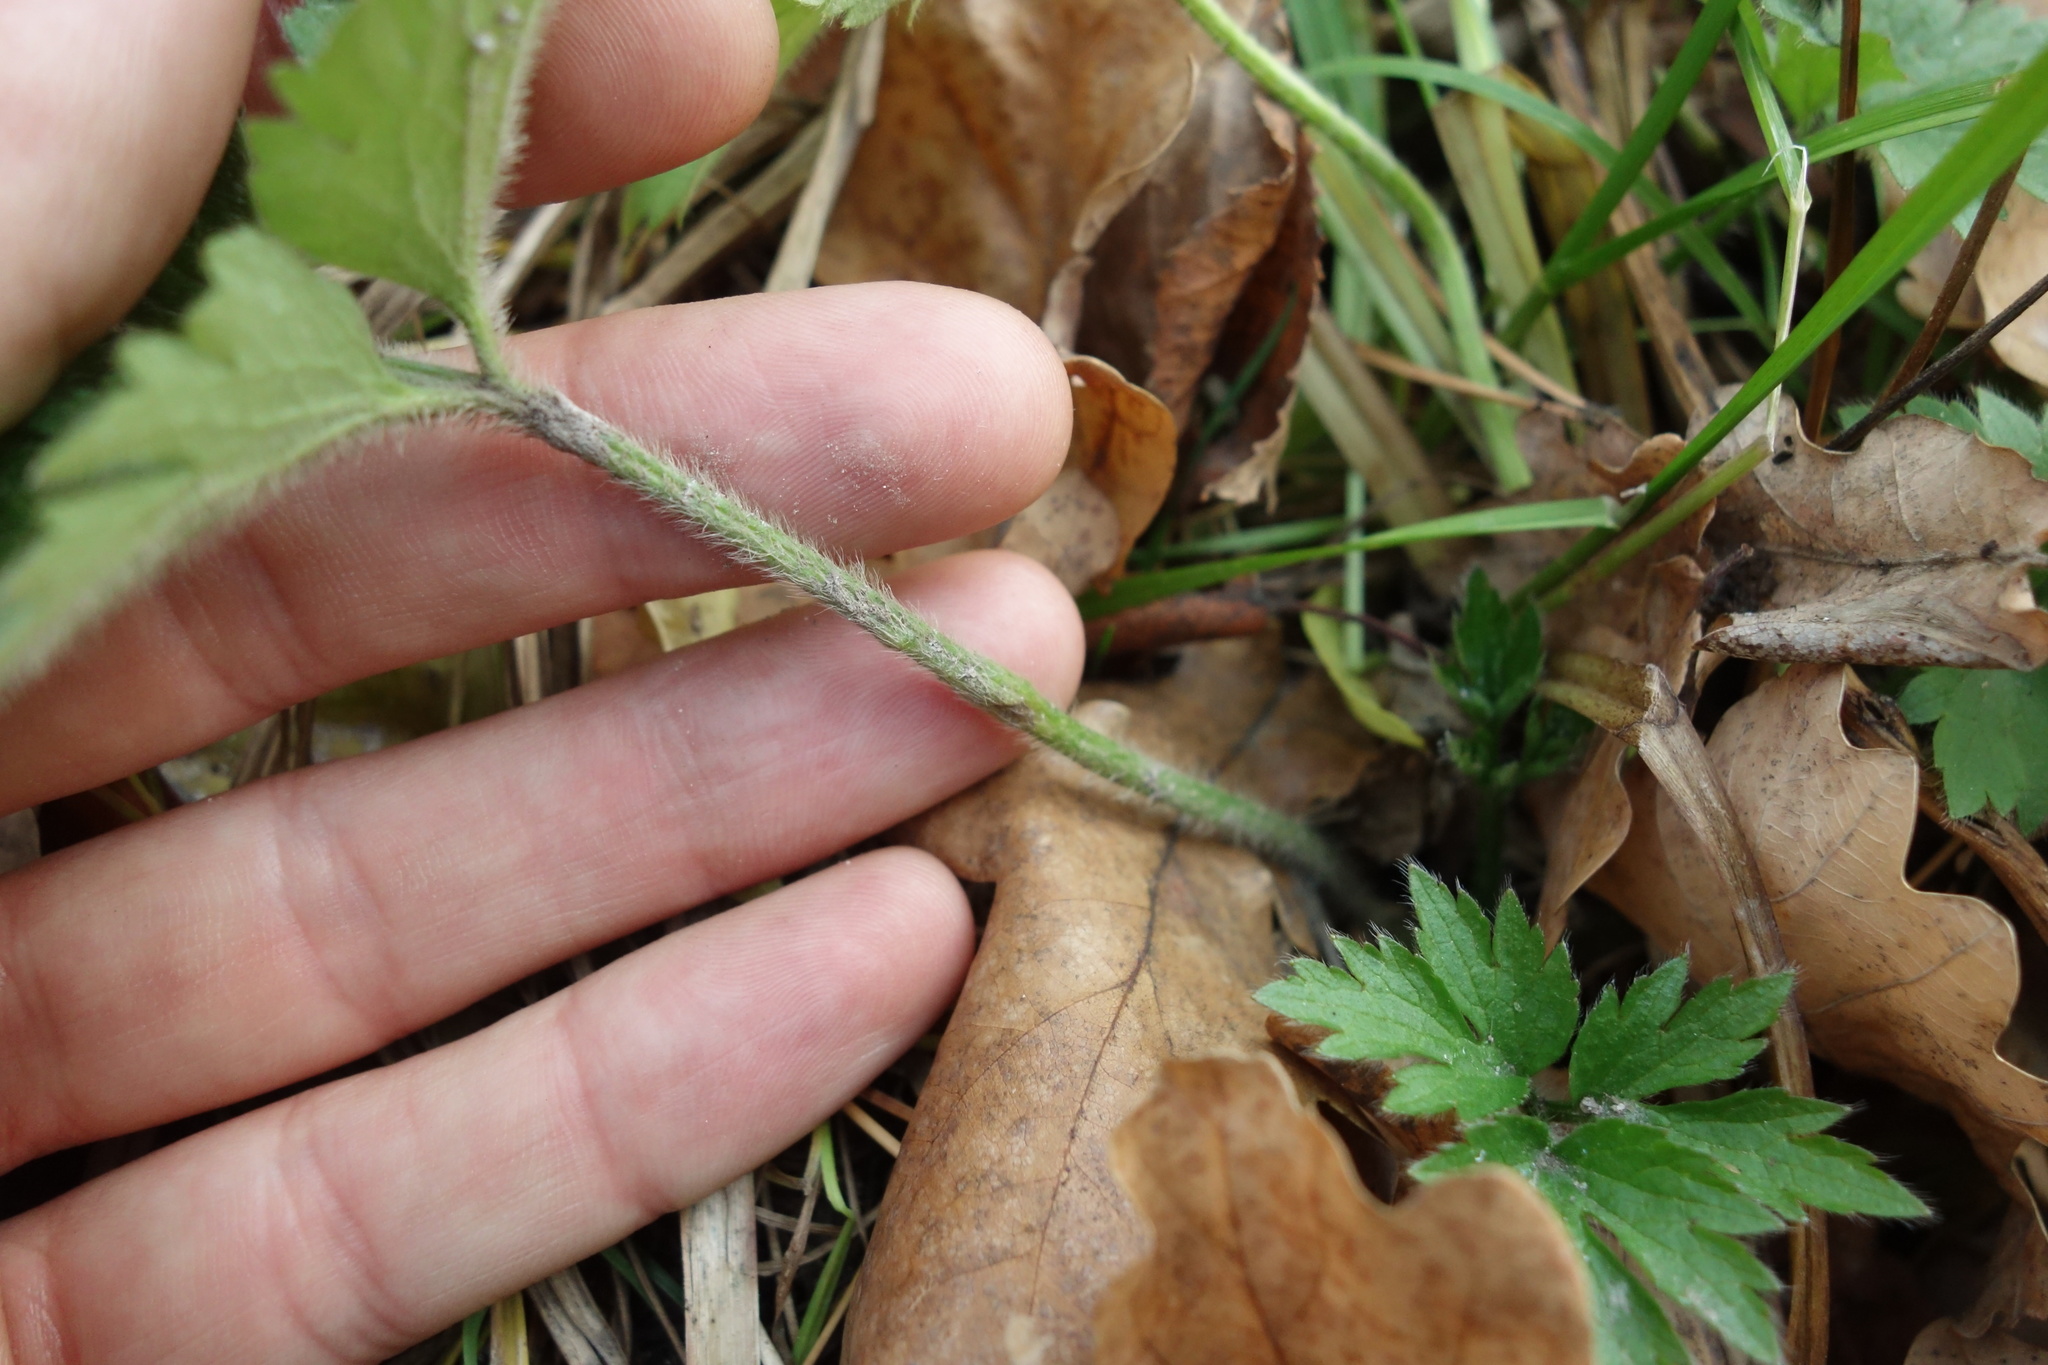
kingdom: Plantae
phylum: Tracheophyta
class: Magnoliopsida
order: Ranunculales
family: Ranunculaceae
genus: Ranunculus
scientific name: Ranunculus repens
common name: Creeping buttercup
